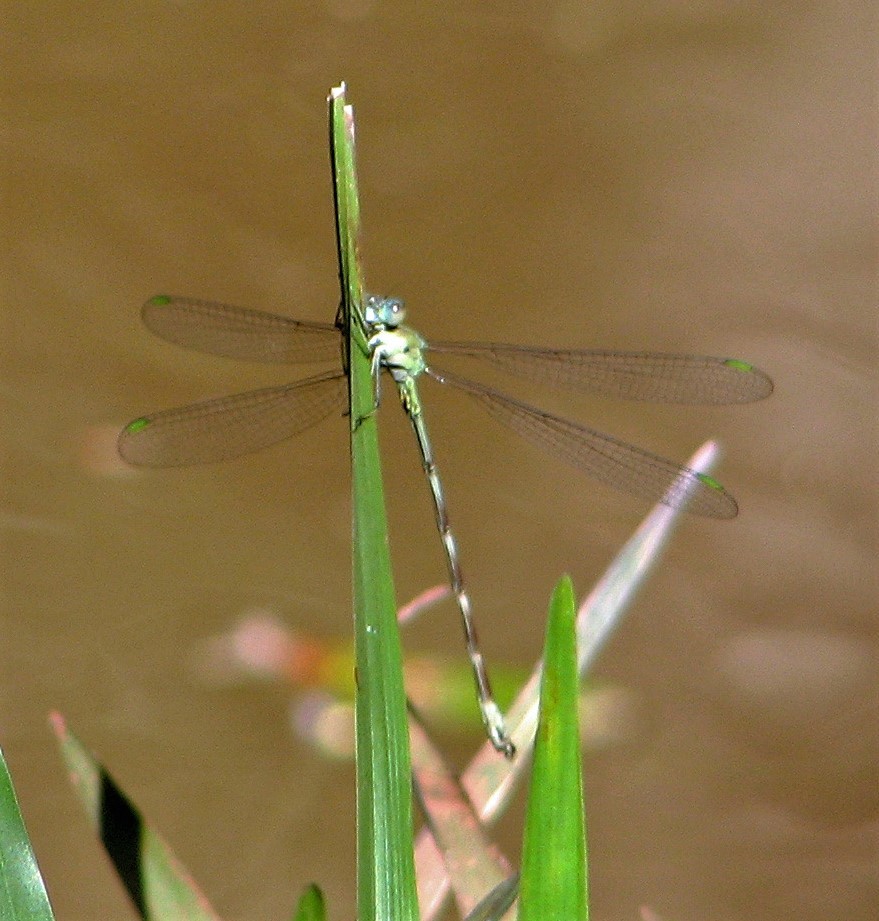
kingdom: Animalia
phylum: Arthropoda
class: Insecta
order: Odonata
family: Lestidae
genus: Archilestes
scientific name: Archilestes exoletus
